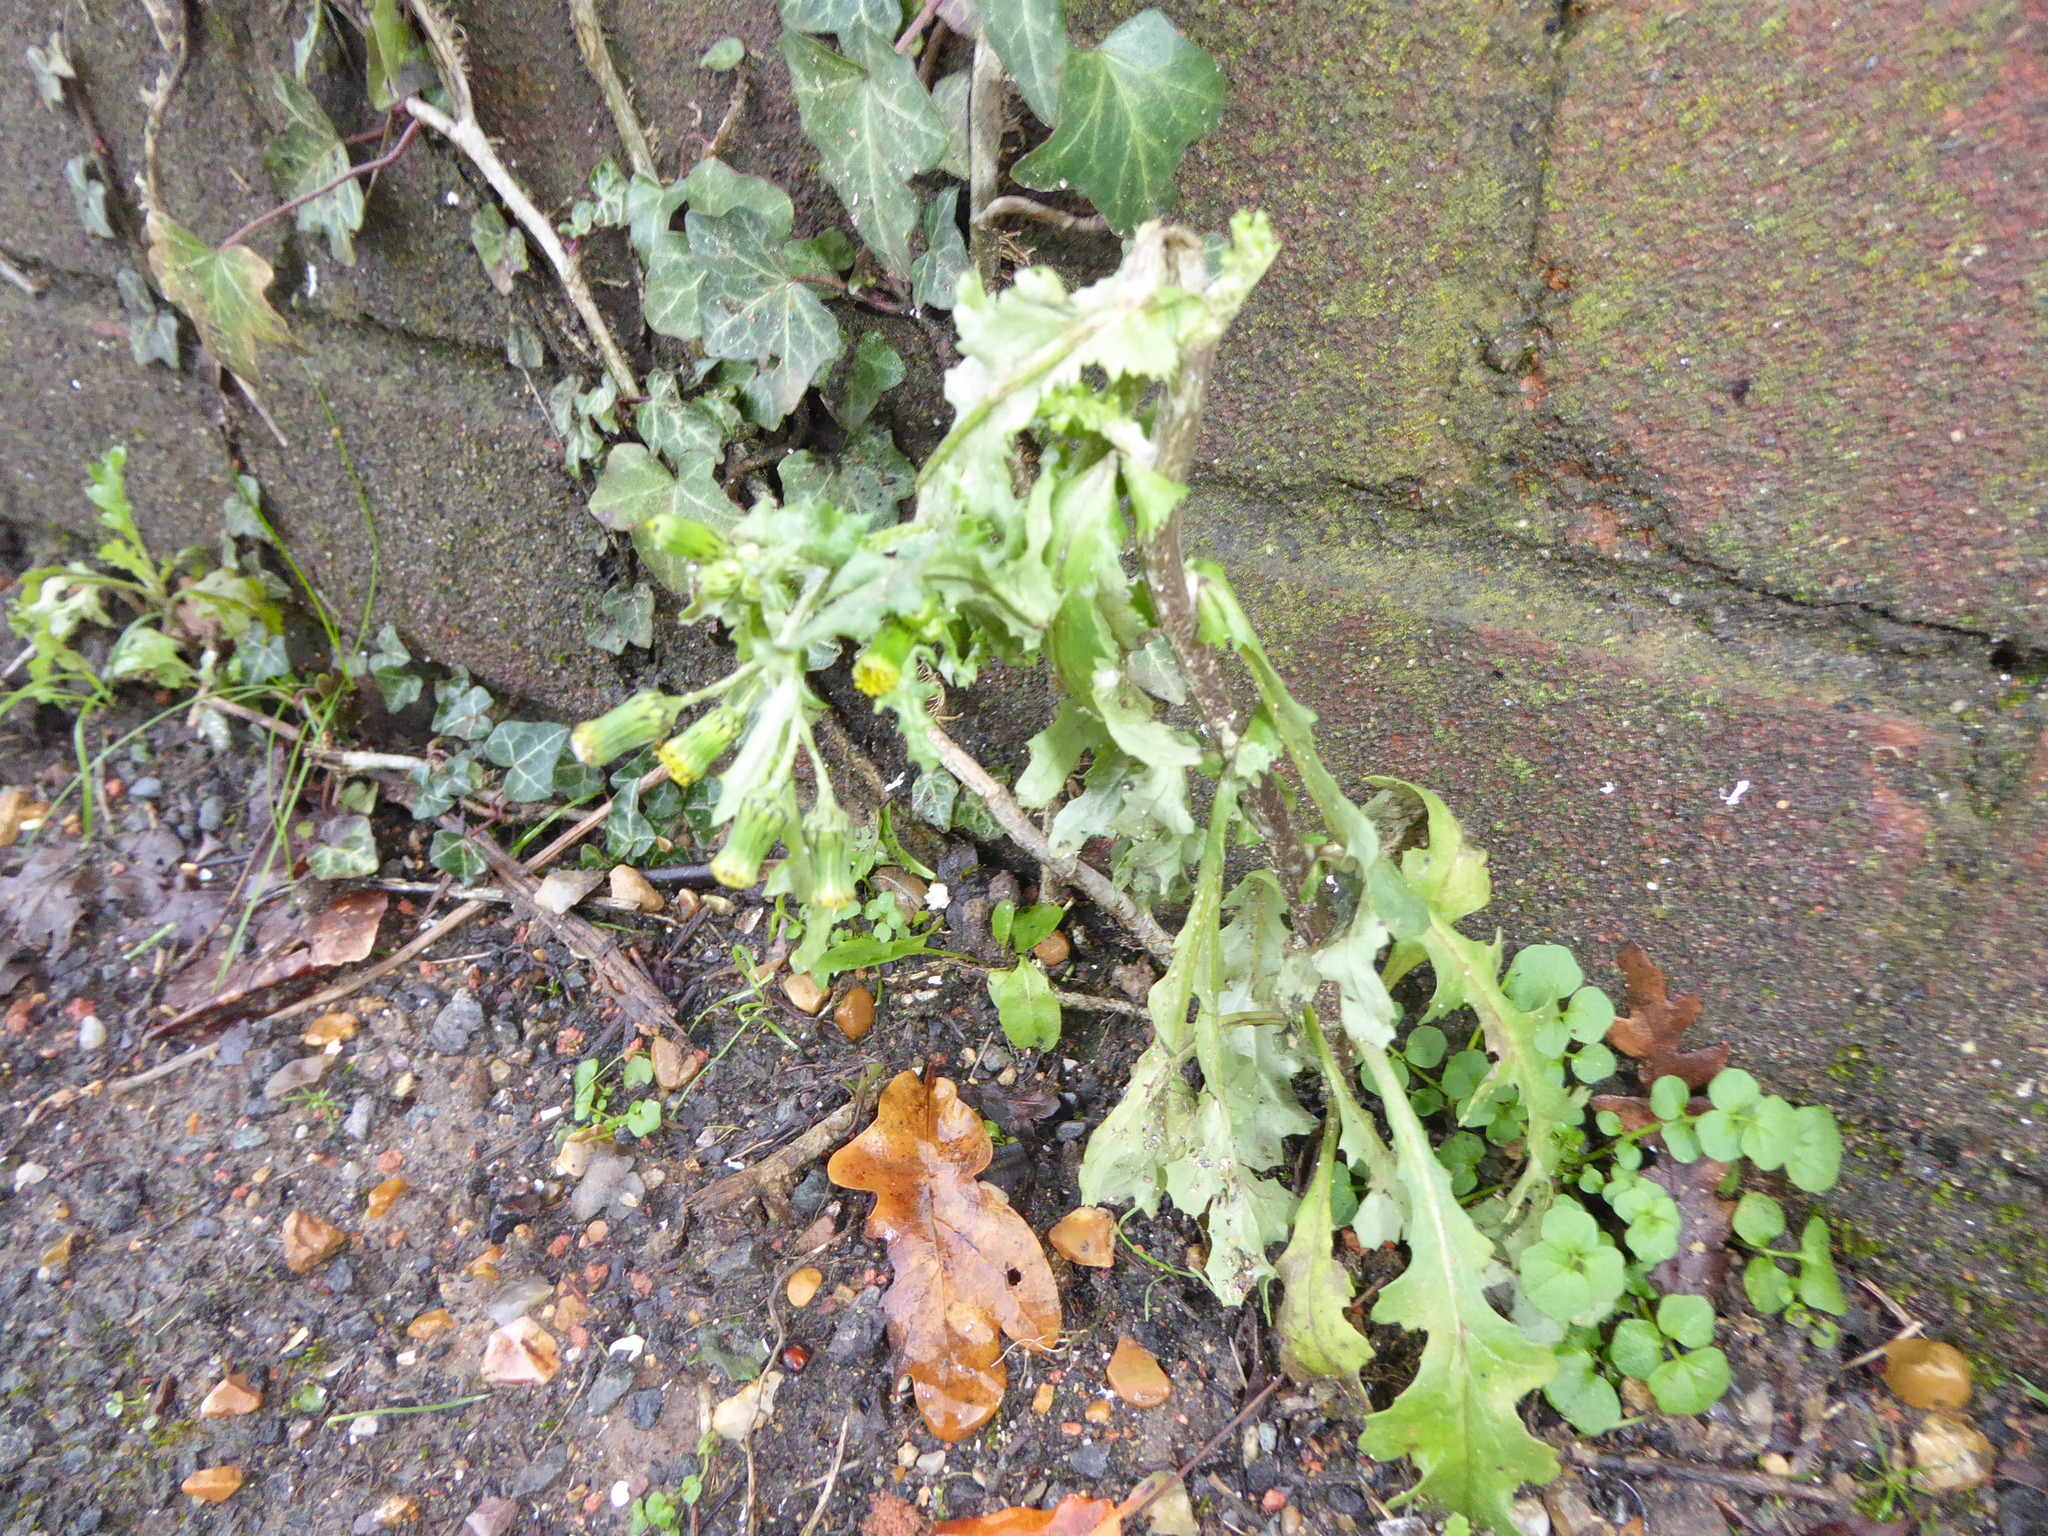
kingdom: Plantae
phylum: Tracheophyta
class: Magnoliopsida
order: Asterales
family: Asteraceae
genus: Senecio
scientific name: Senecio vulgaris
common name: Old-man-in-the-spring
